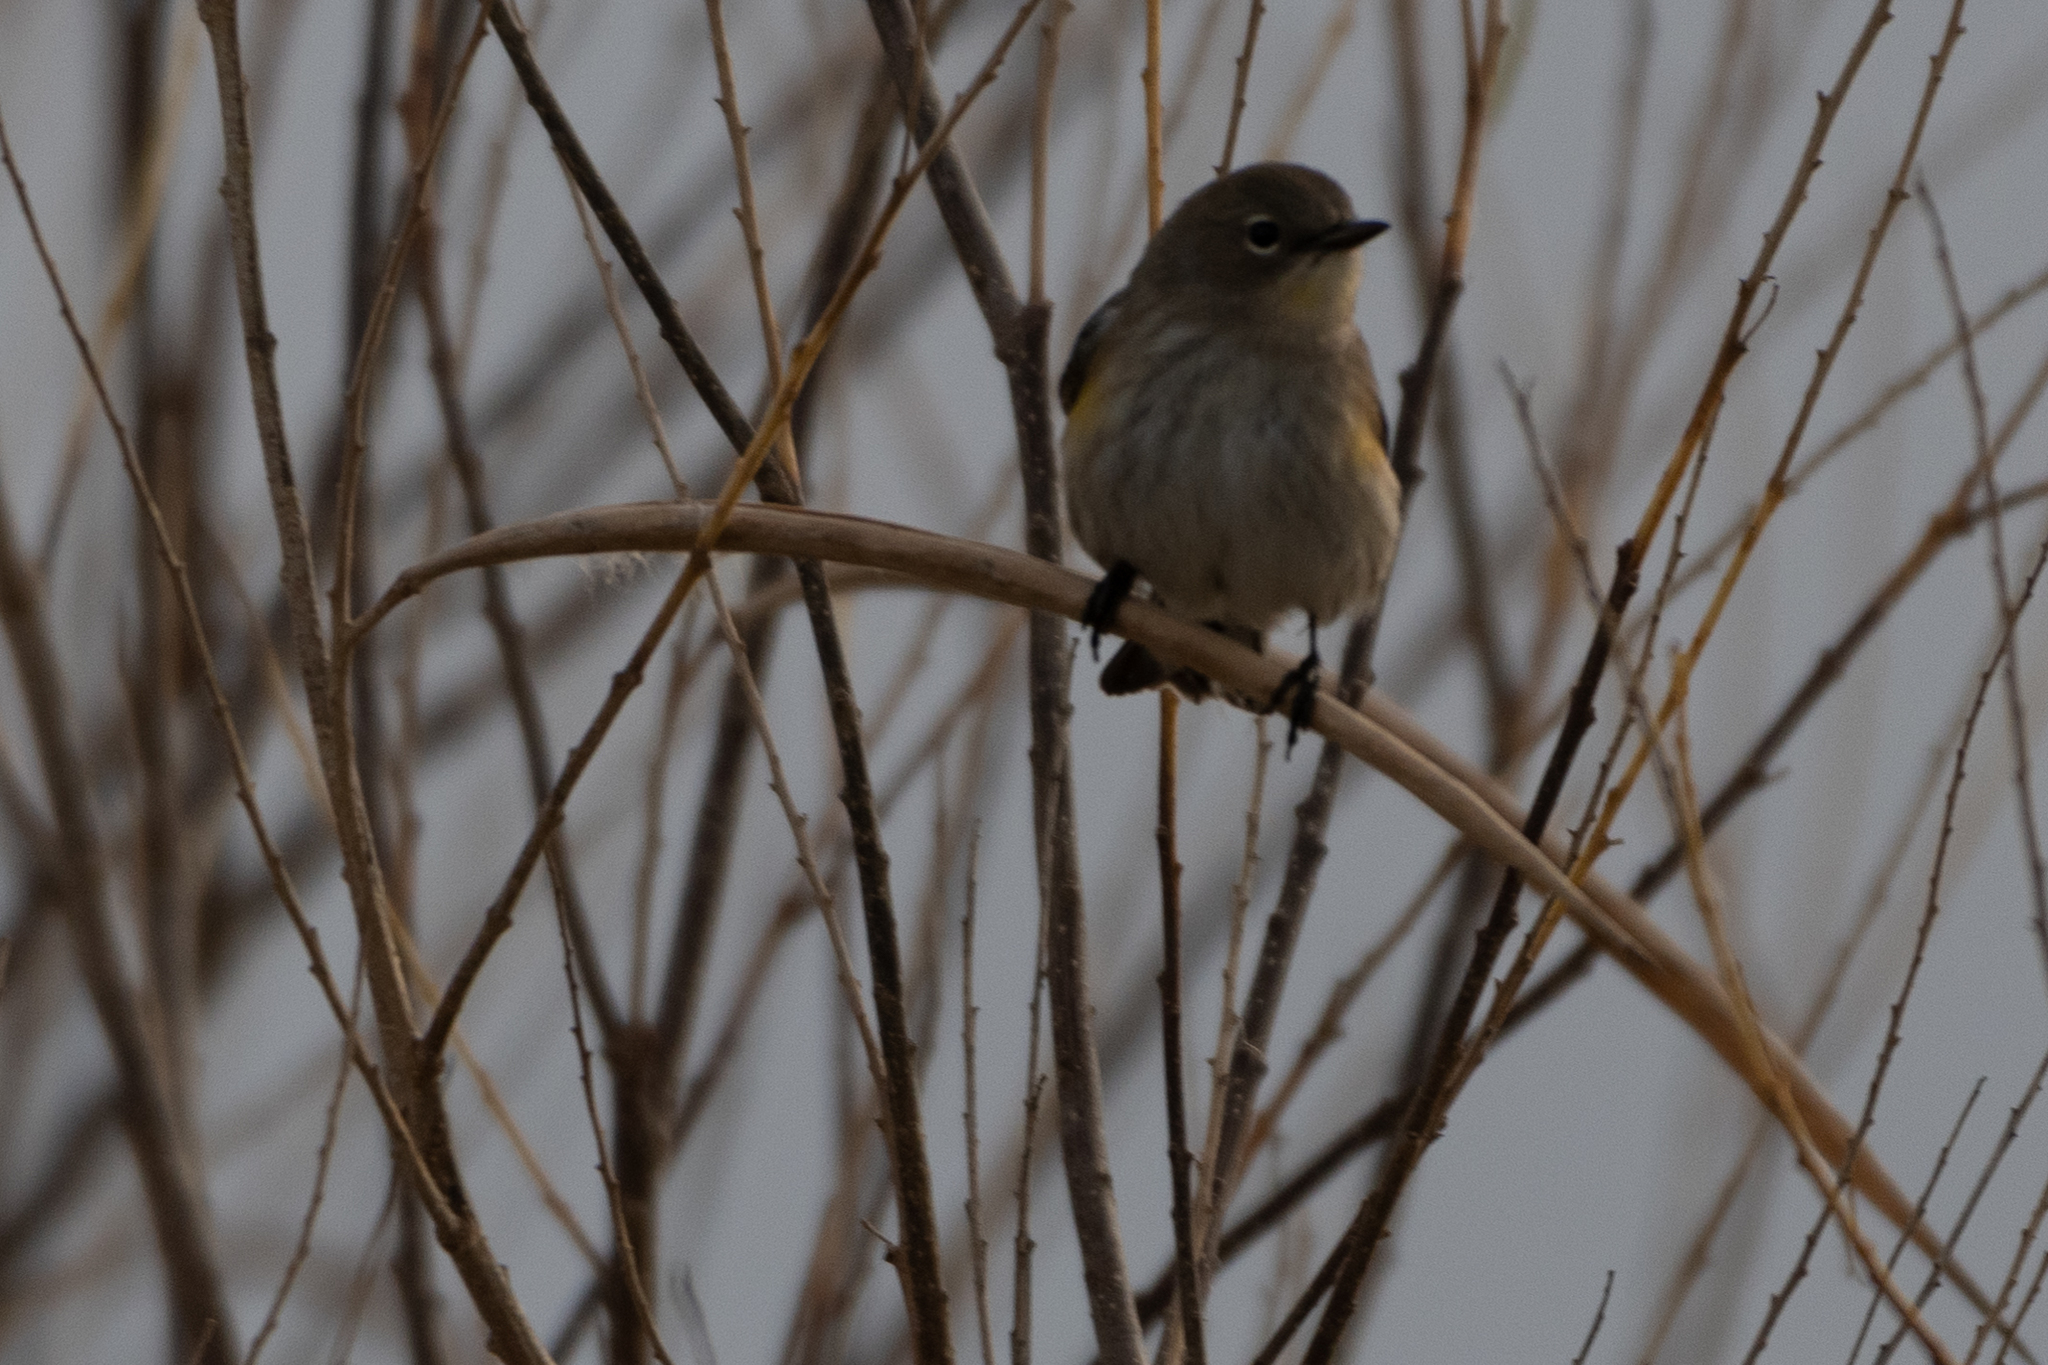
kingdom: Animalia
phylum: Chordata
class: Aves
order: Passeriformes
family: Parulidae
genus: Setophaga
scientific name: Setophaga coronata
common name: Myrtle warbler
